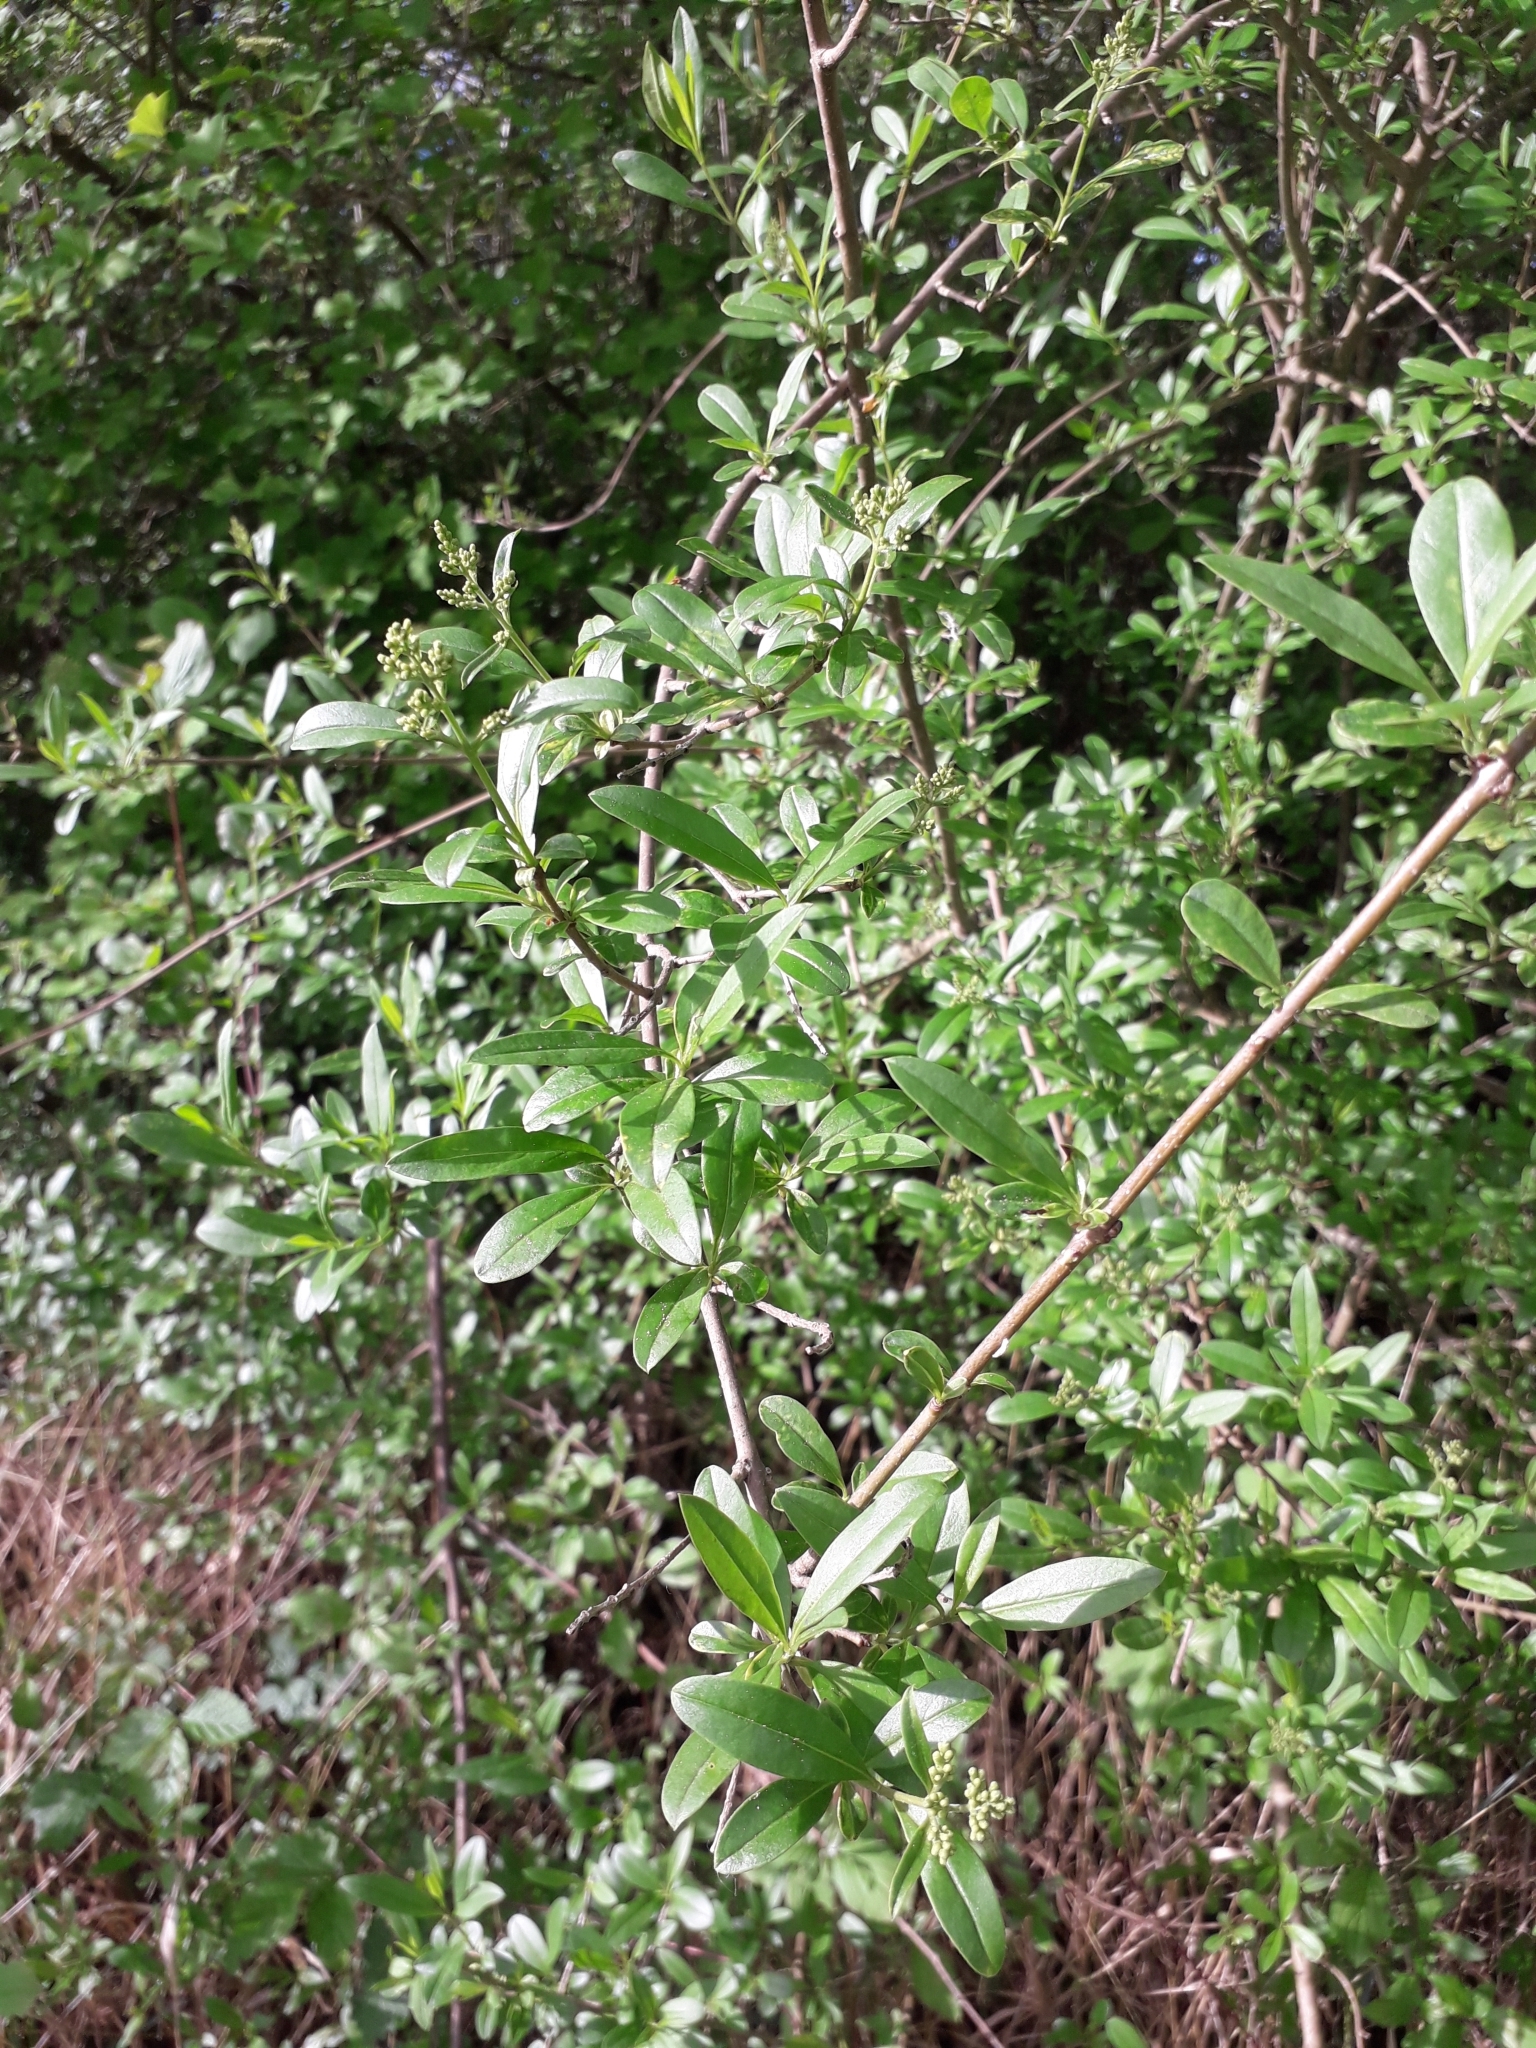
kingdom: Plantae
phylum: Tracheophyta
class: Magnoliopsida
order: Lamiales
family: Oleaceae
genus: Ligustrum
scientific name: Ligustrum vulgare
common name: Wild privet
